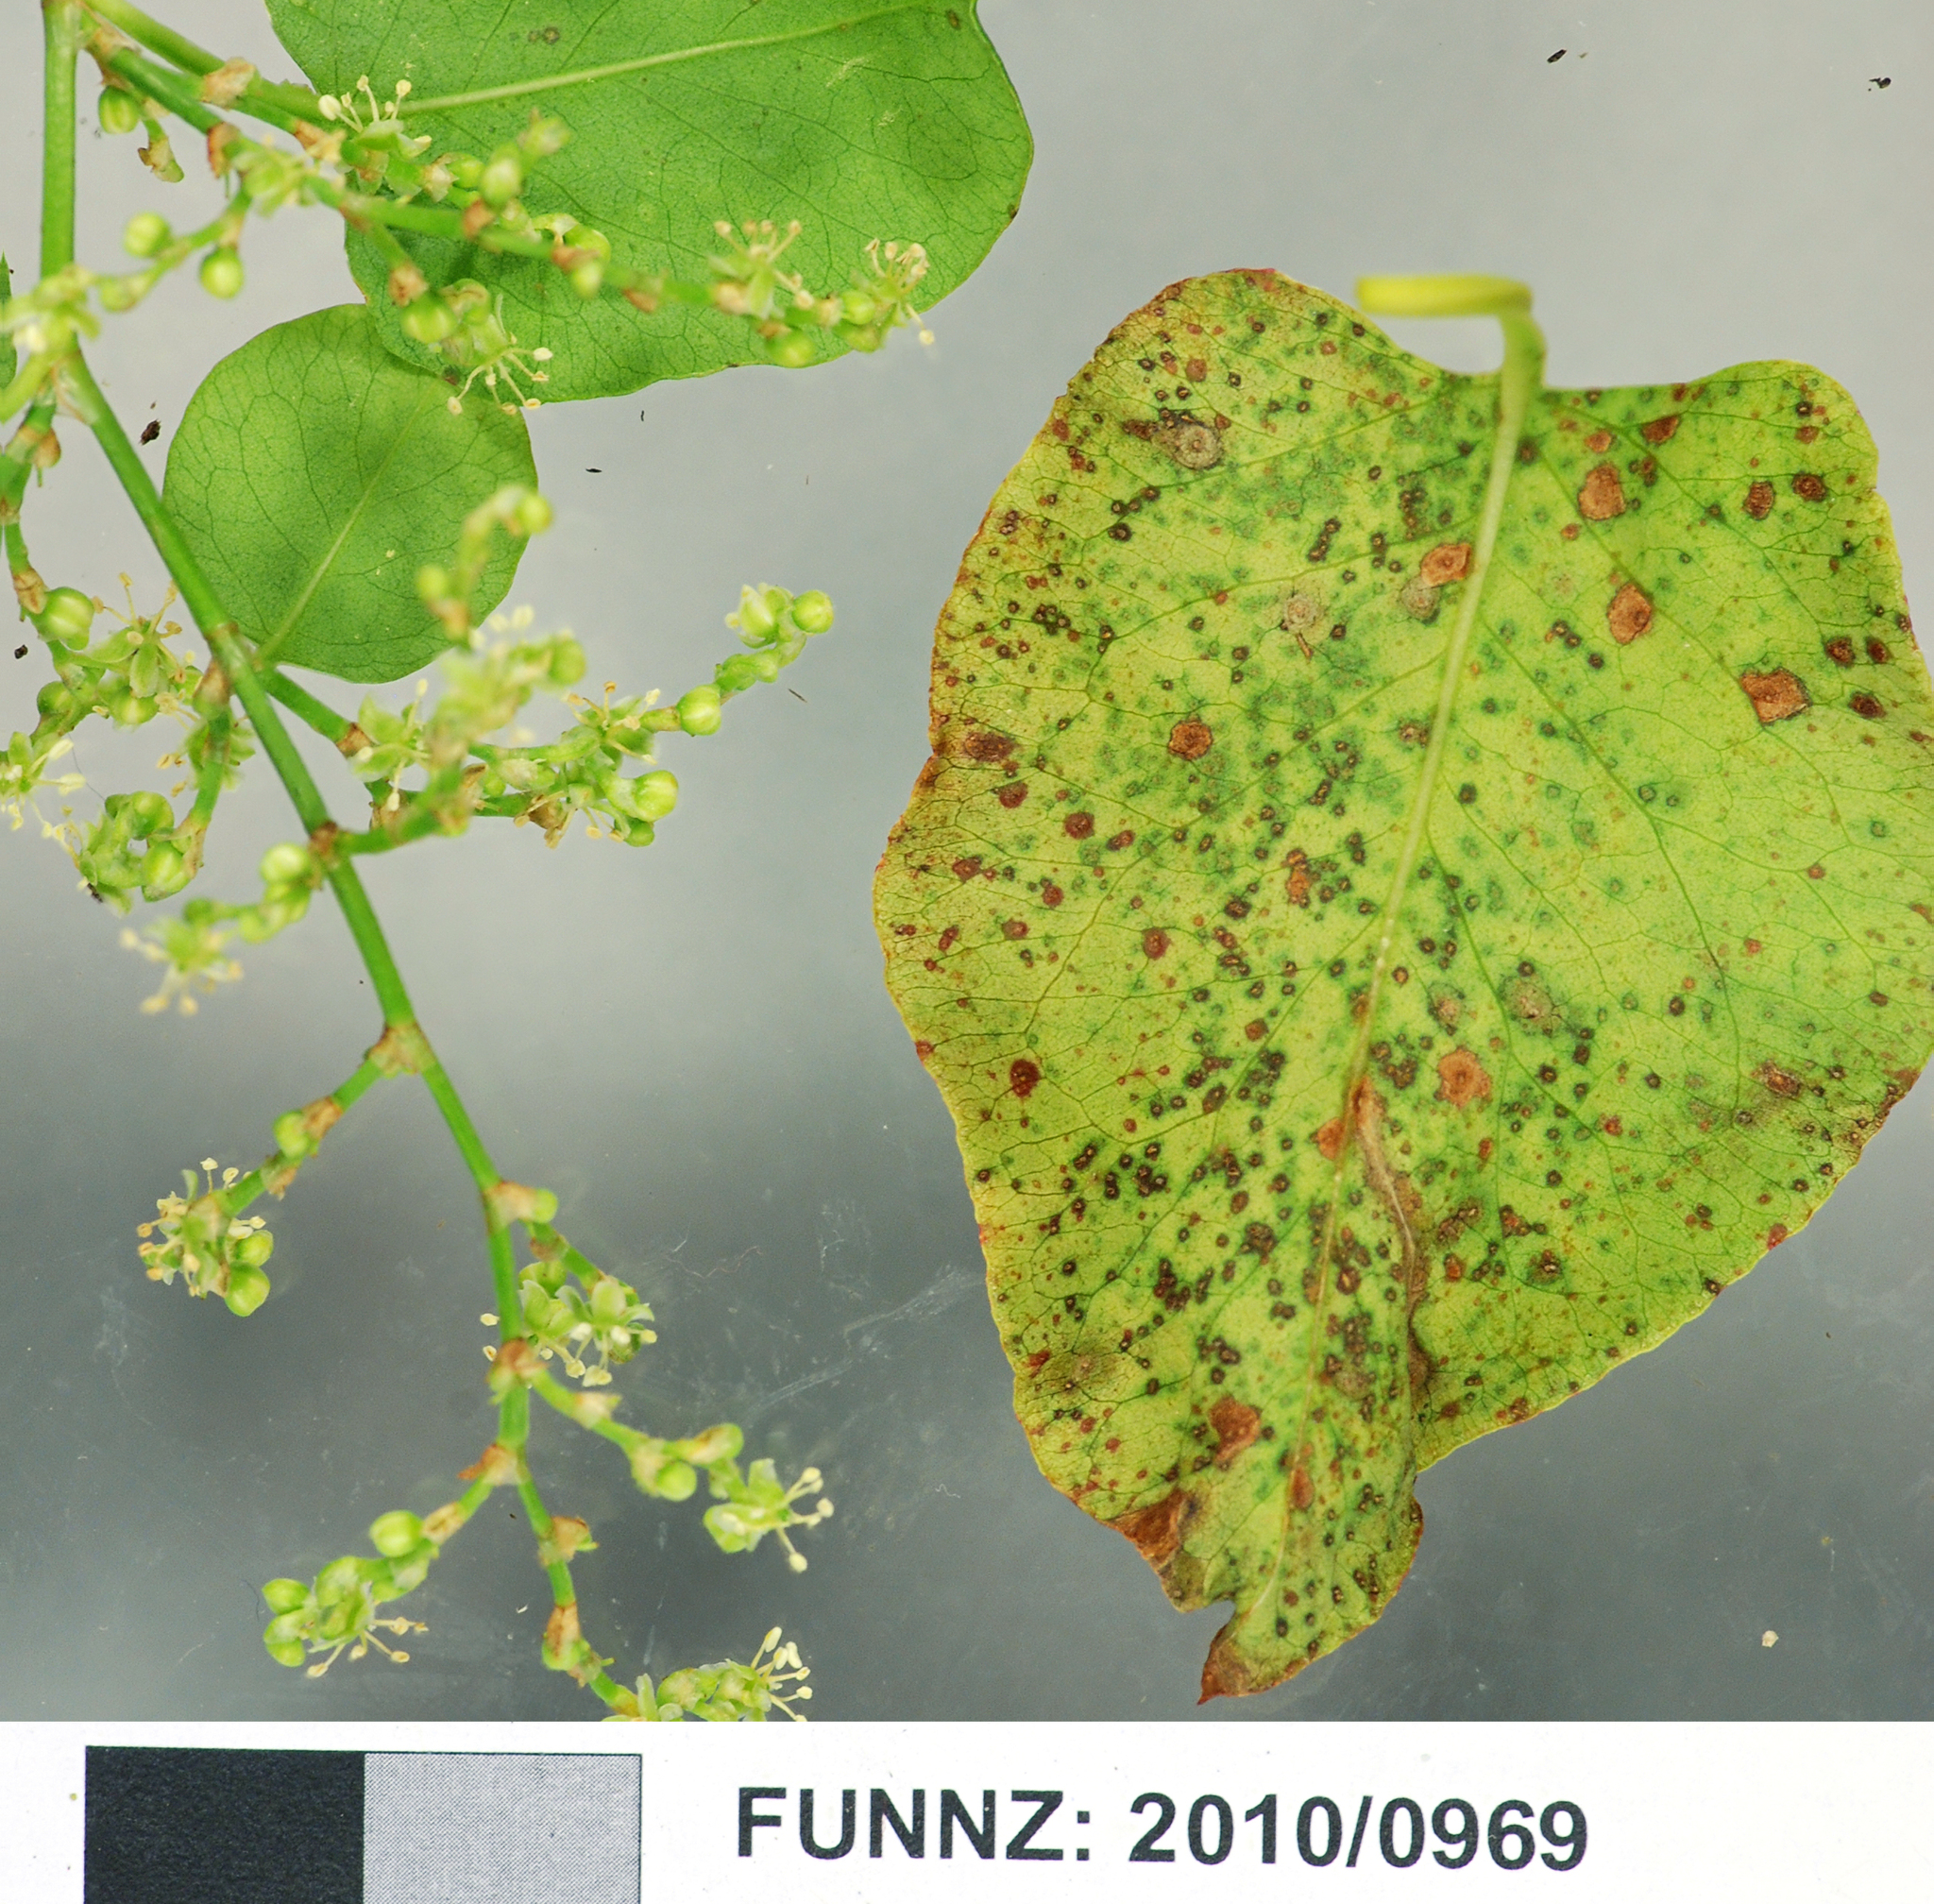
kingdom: Fungi
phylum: Basidiomycota
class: Pucciniomycetes
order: Pucciniales
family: Pucciniaceae
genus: Puccinia
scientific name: Puccinia otagensis
